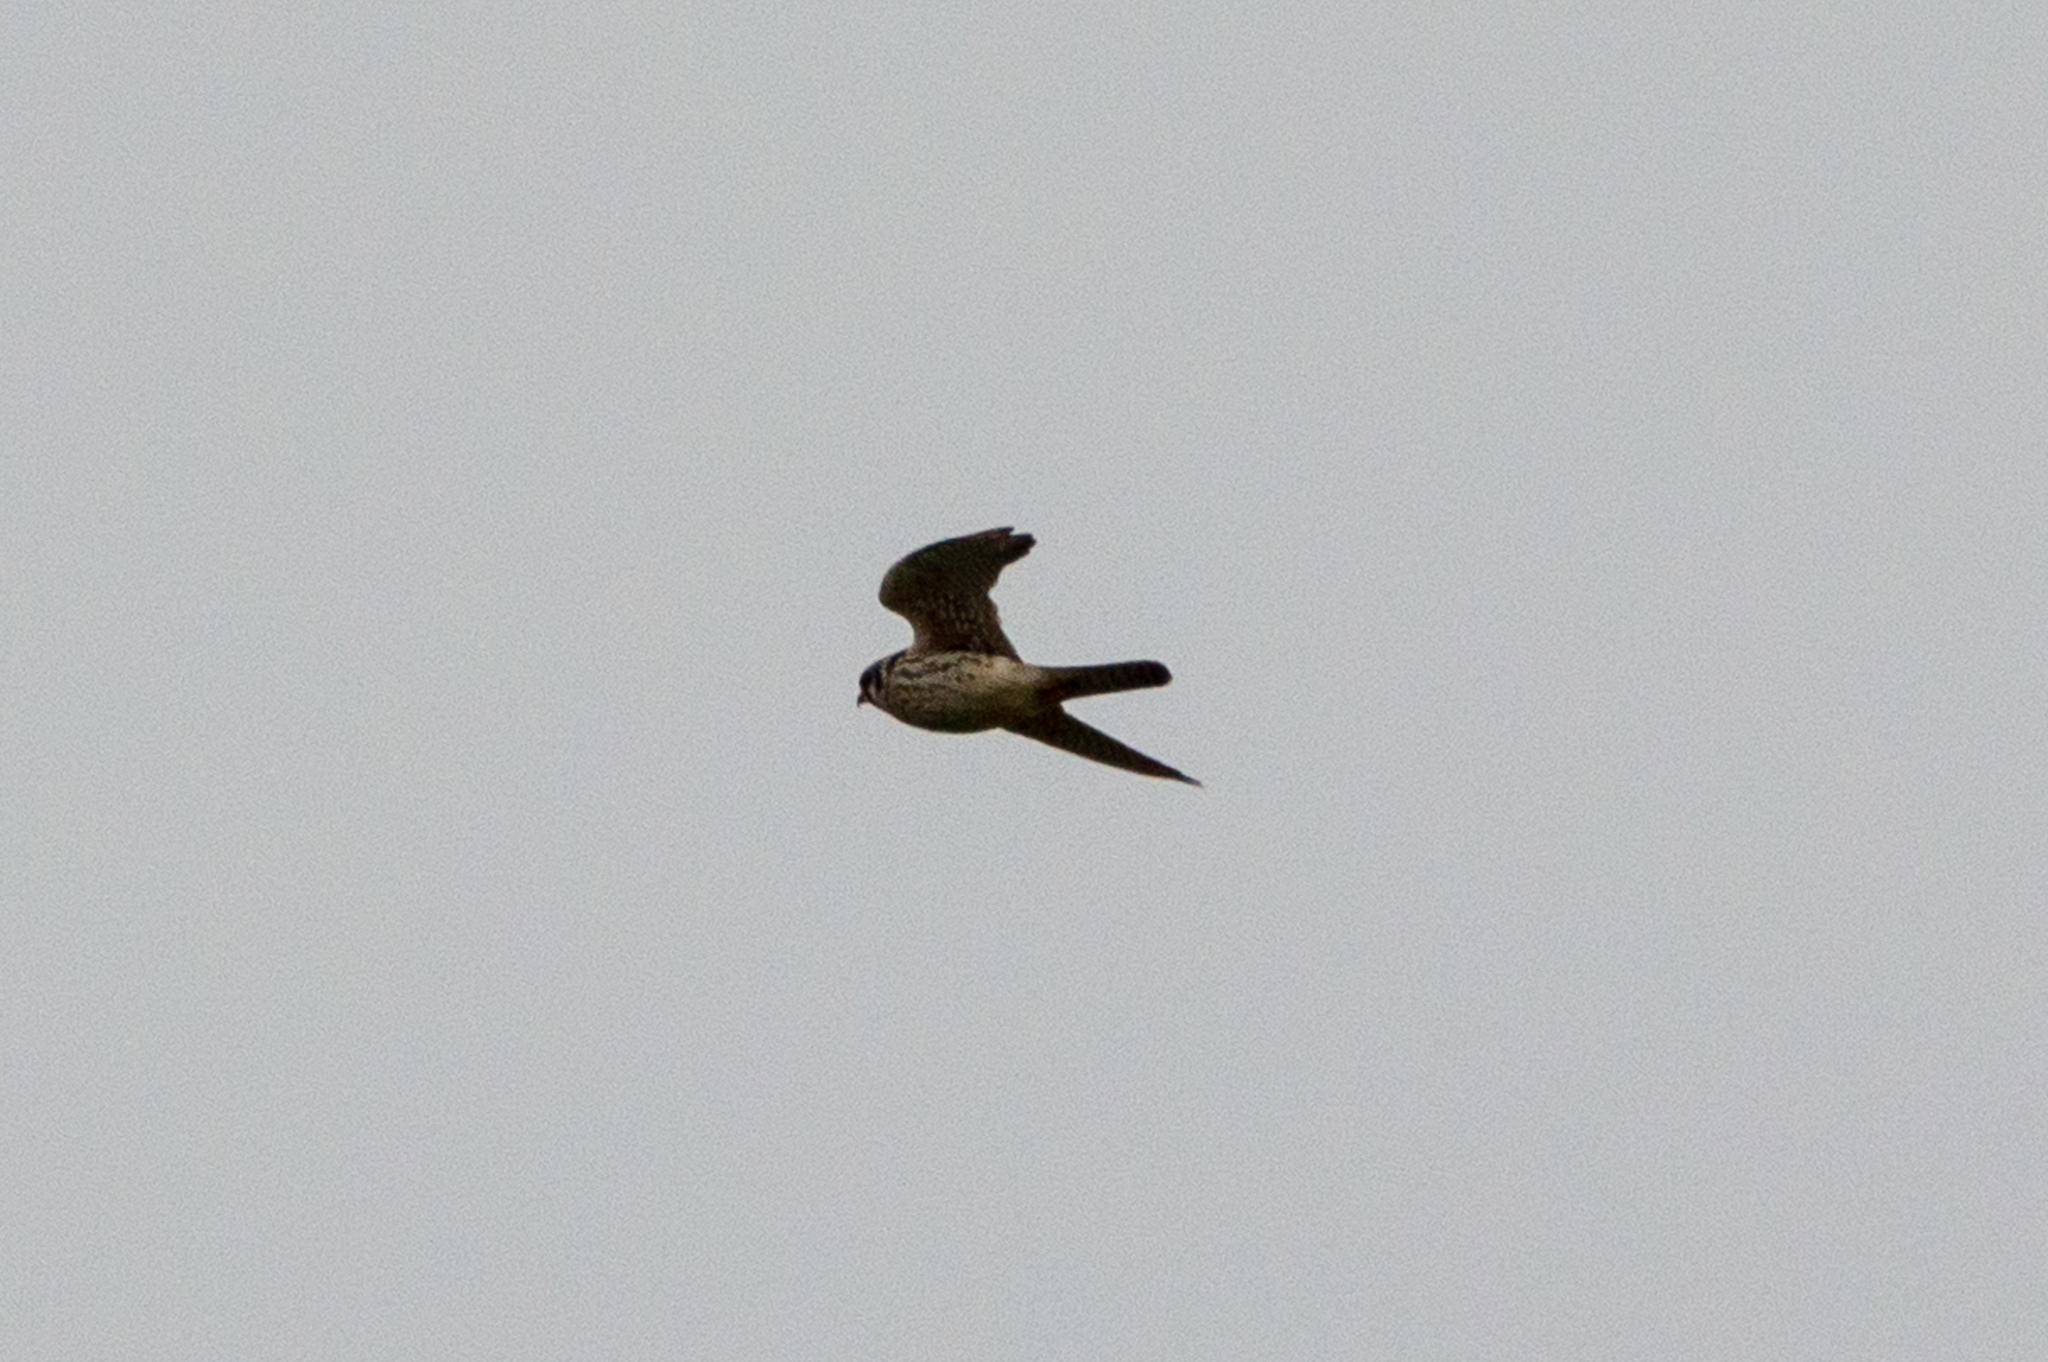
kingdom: Animalia
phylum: Chordata
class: Aves
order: Falconiformes
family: Falconidae
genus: Falco
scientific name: Falco sparverius
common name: American kestrel
